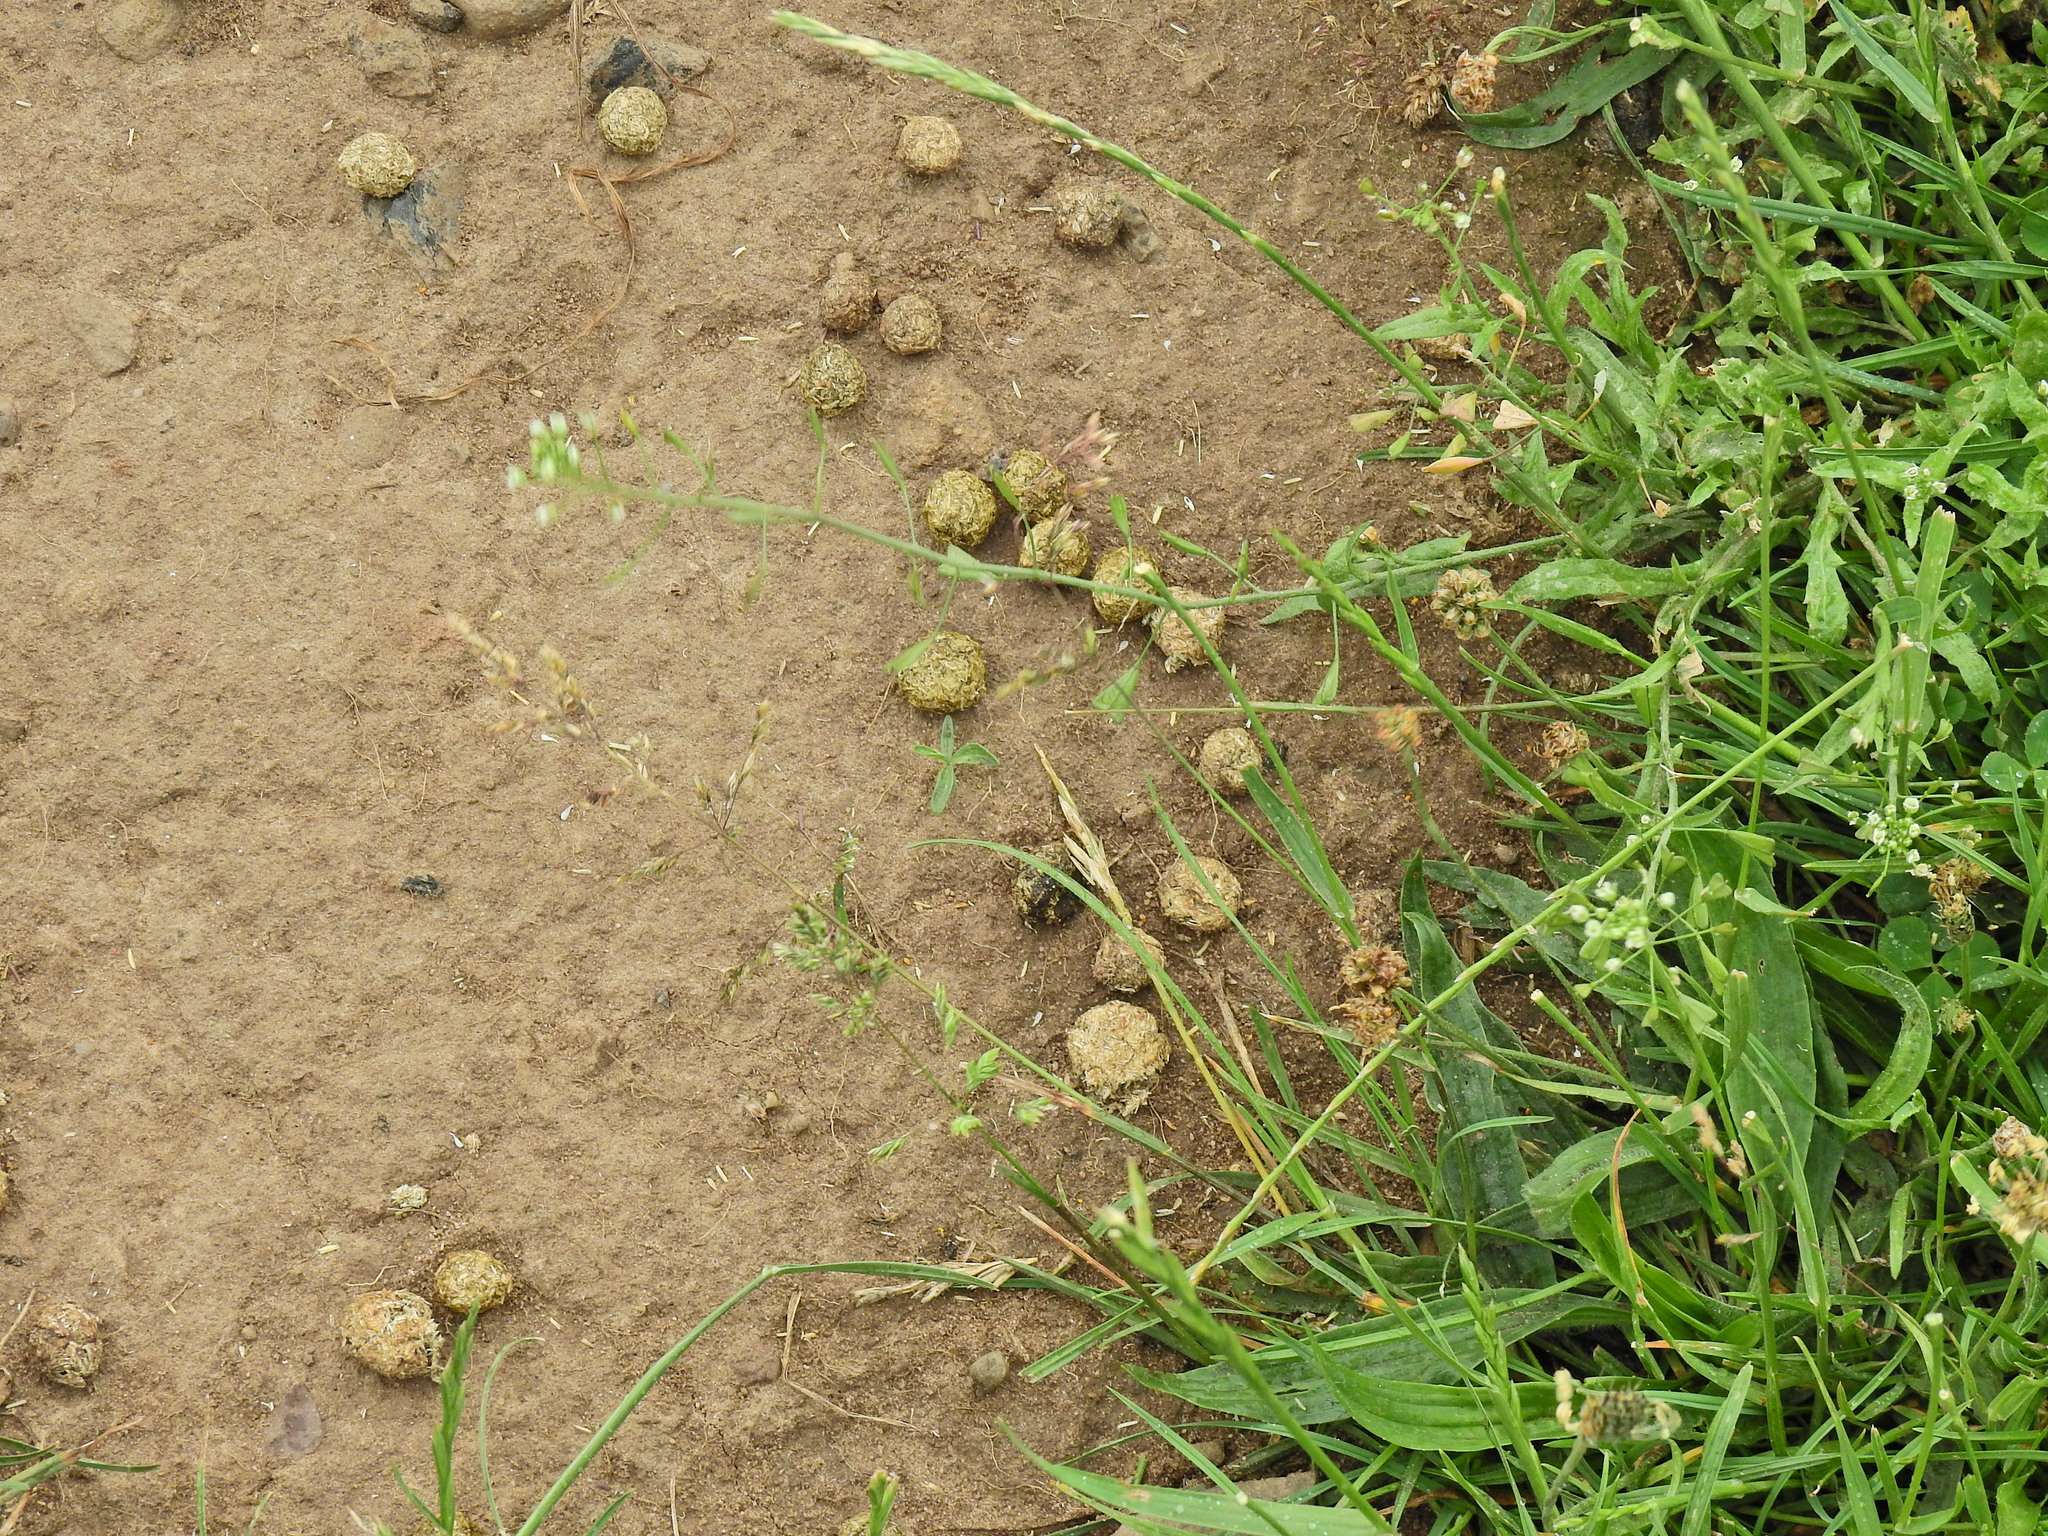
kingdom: Animalia
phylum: Chordata
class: Mammalia
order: Lagomorpha
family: Leporidae
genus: Oryctolagus
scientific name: Oryctolagus cuniculus
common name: European rabbit
